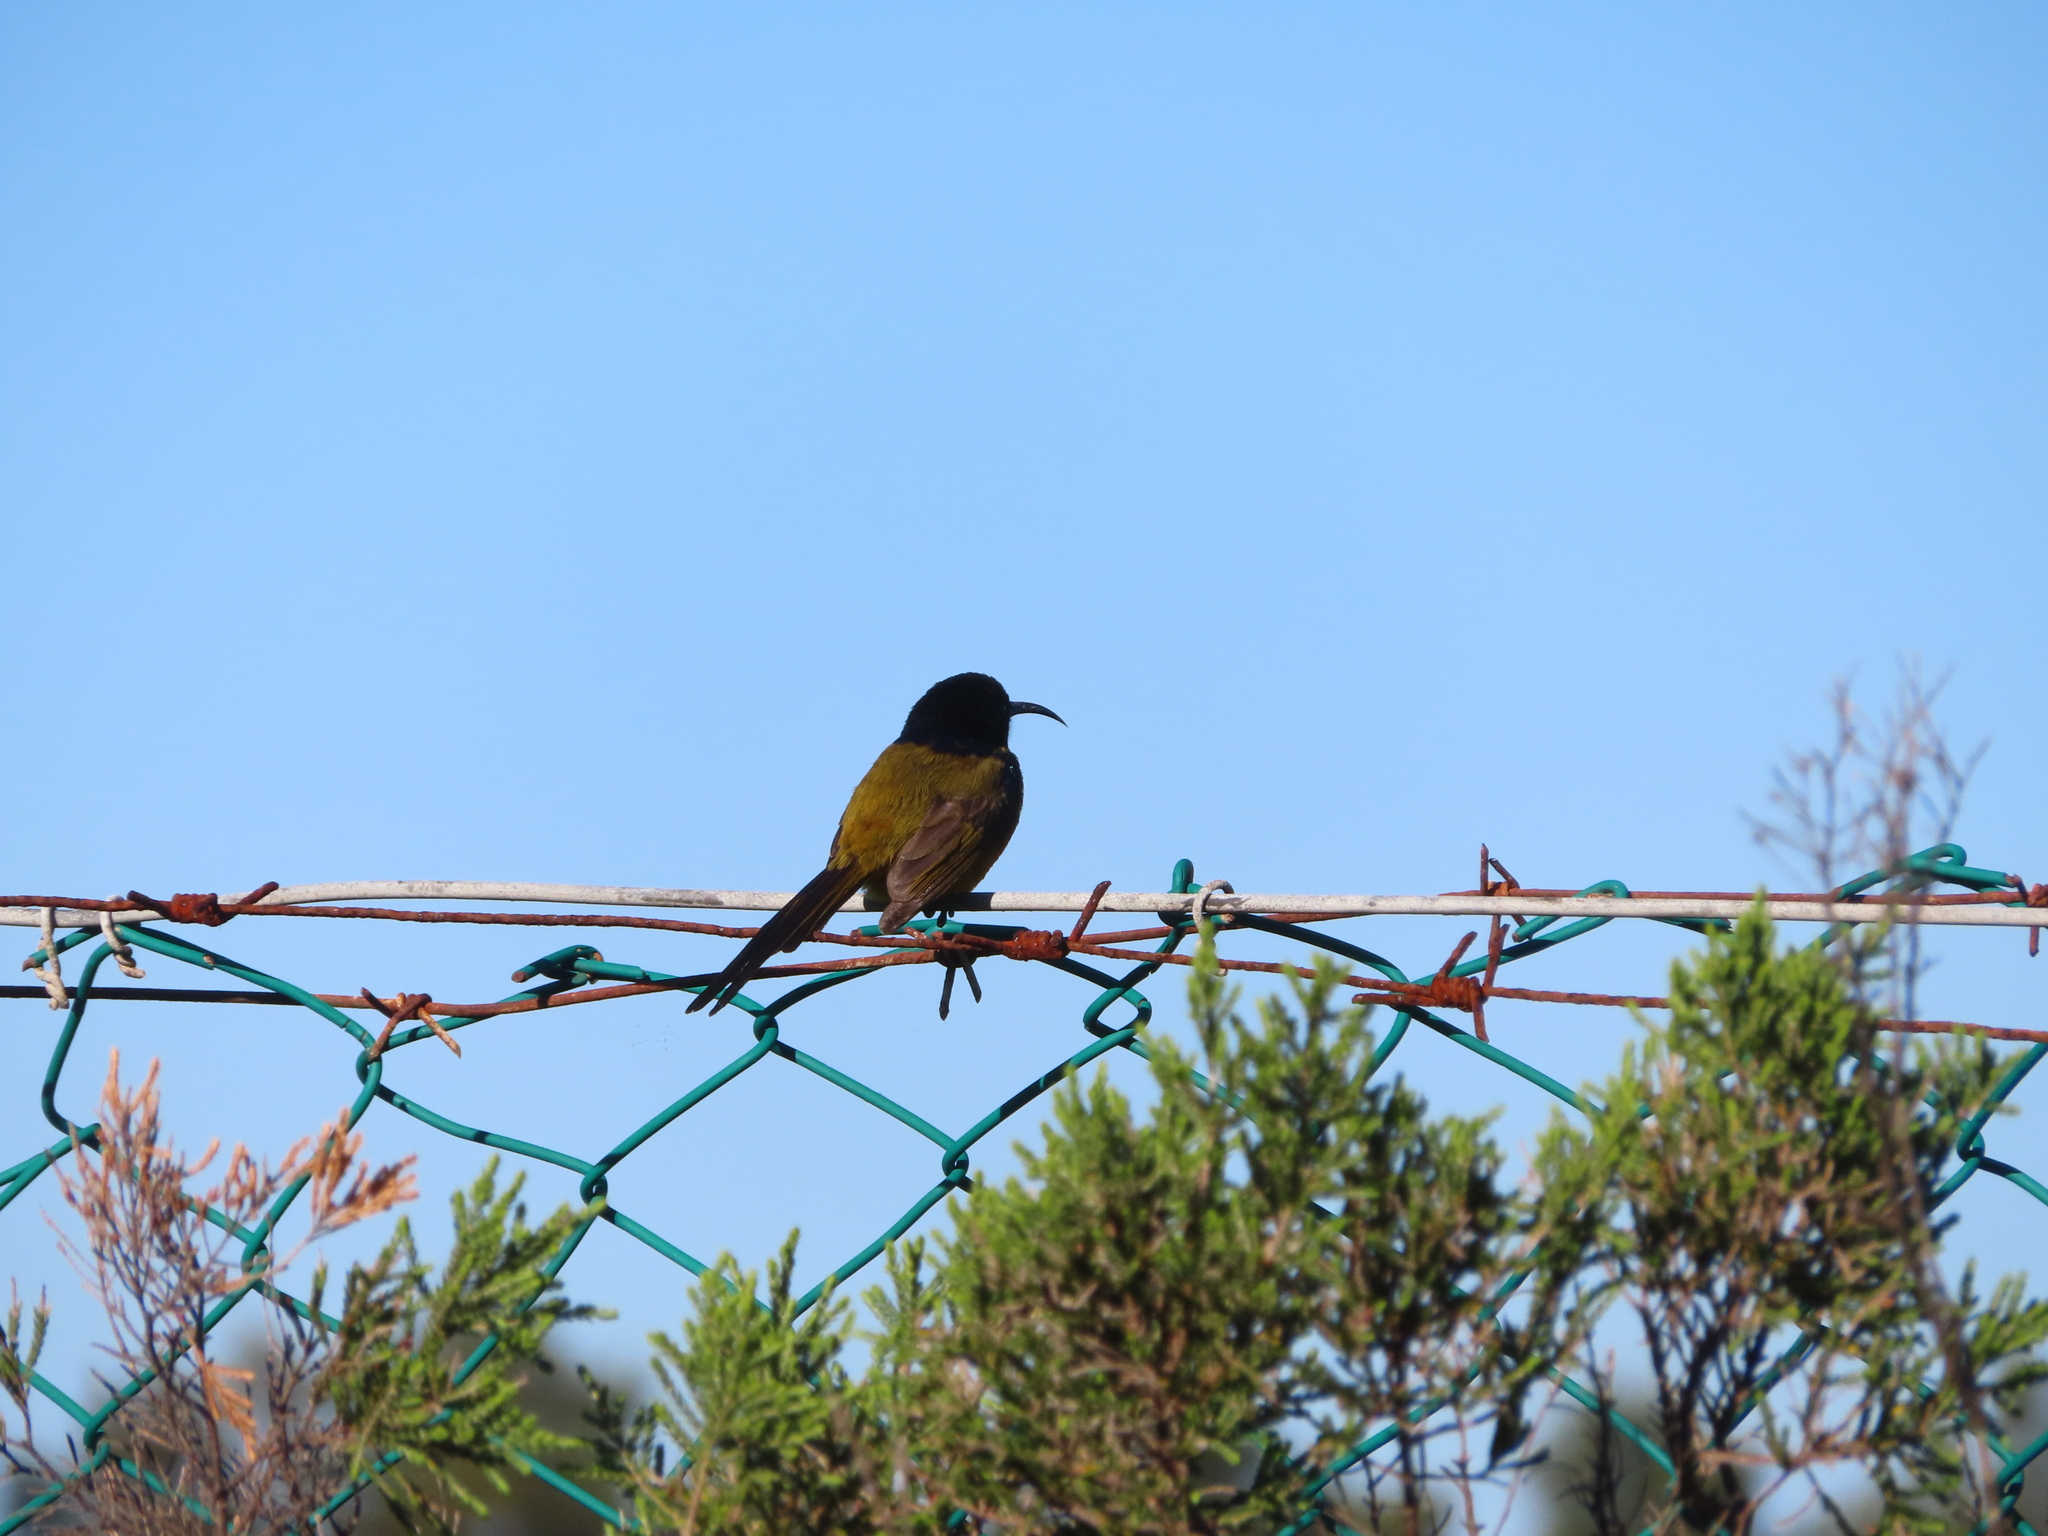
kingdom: Animalia
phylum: Chordata
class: Aves
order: Passeriformes
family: Nectariniidae
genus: Anthobaphes
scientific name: Anthobaphes violacea
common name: Orange-breasted sunbird
